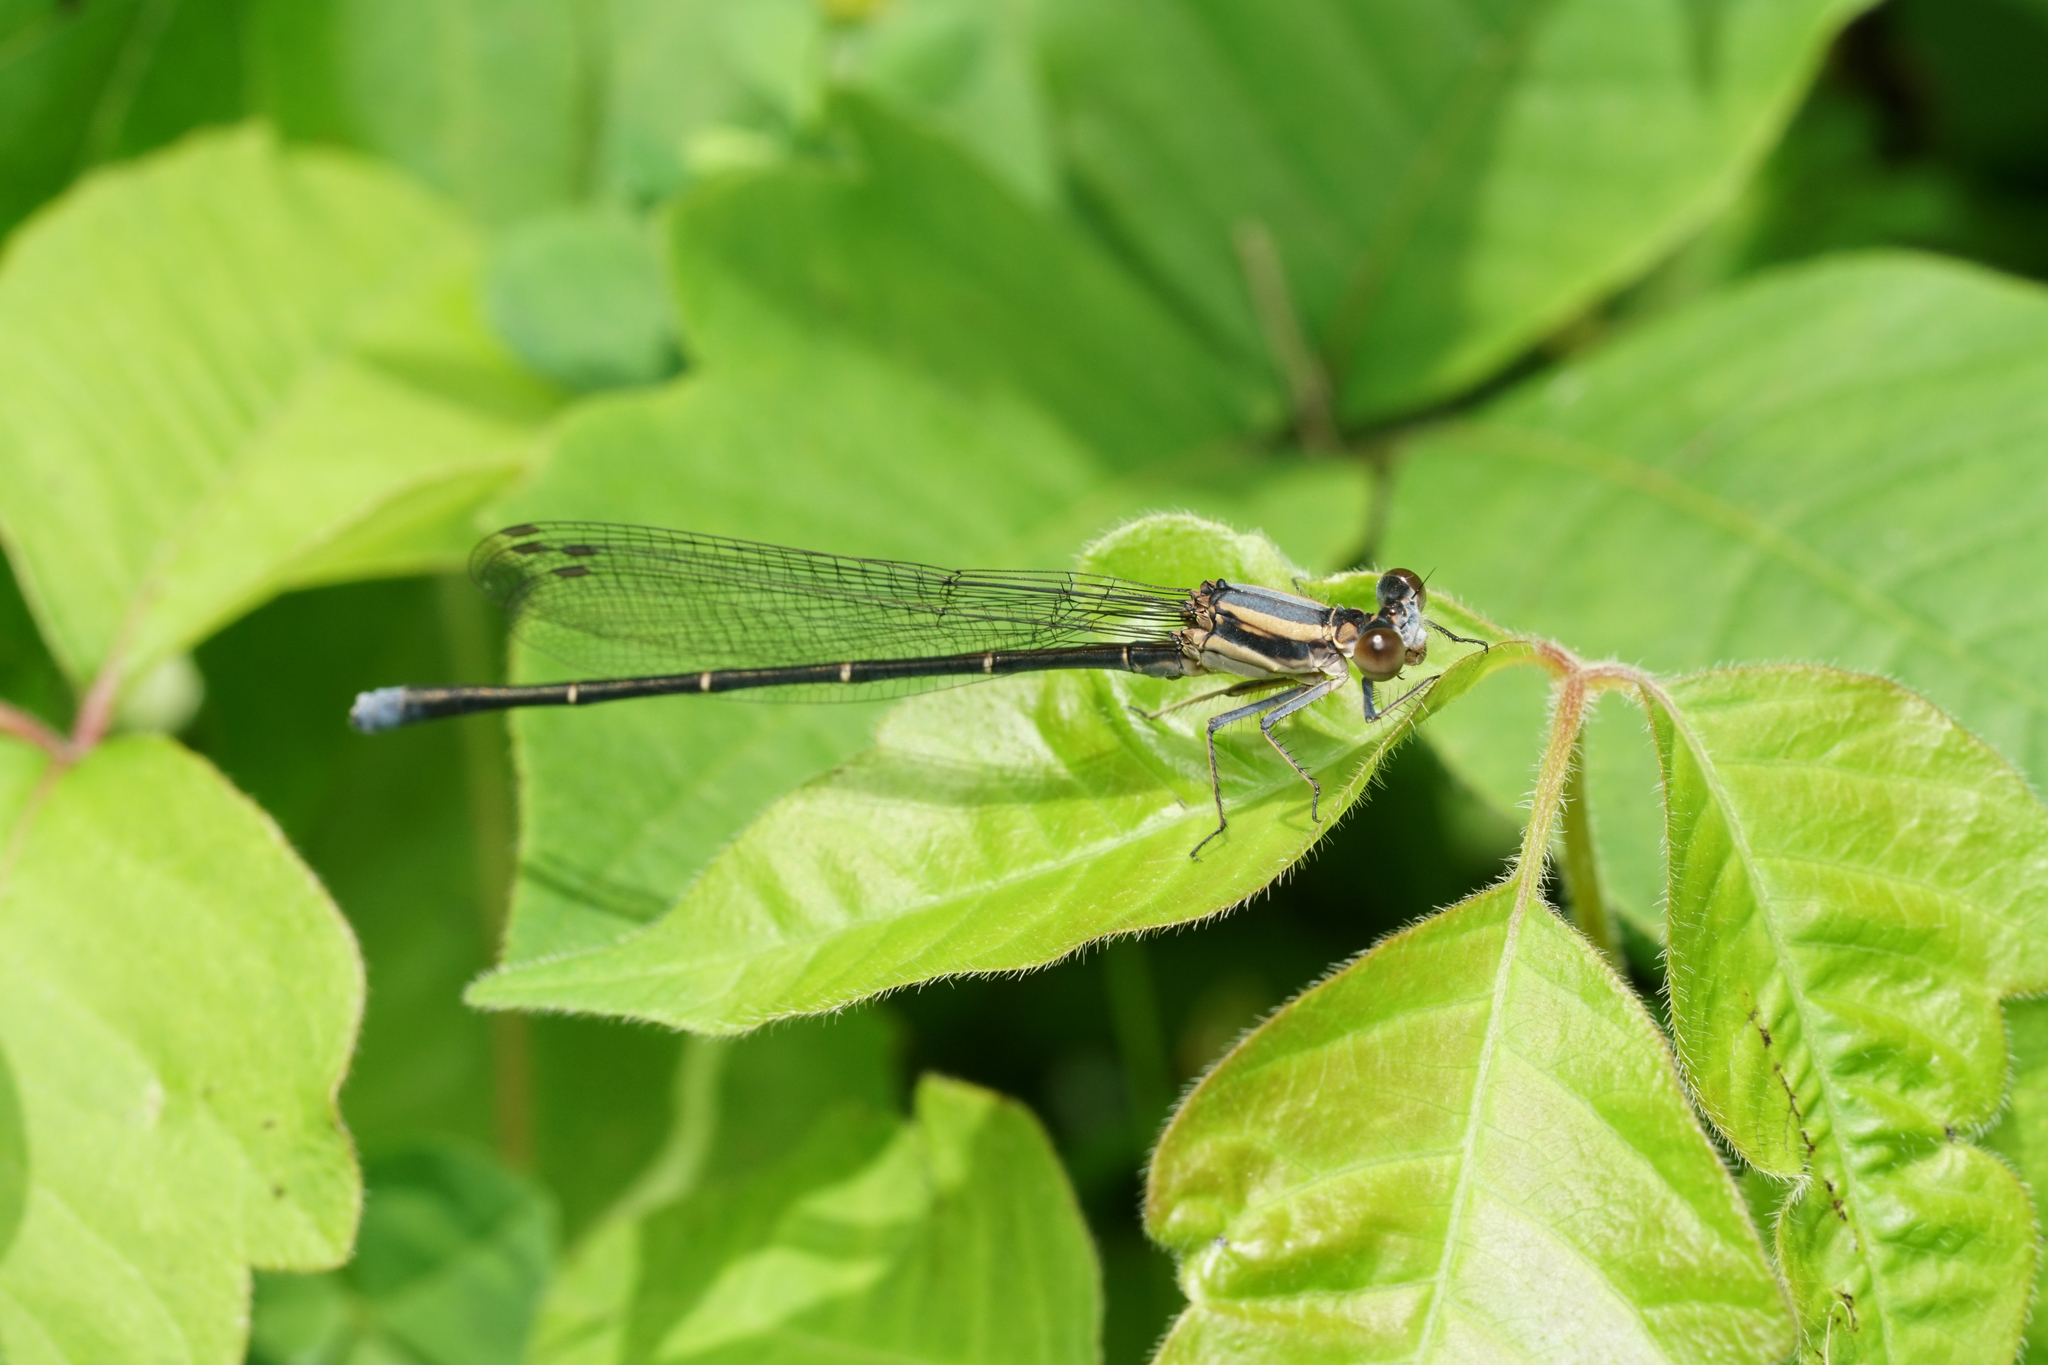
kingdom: Animalia
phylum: Arthropoda
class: Insecta
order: Odonata
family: Coenagrionidae
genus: Argia
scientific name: Argia moesta
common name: Powdered dancer
